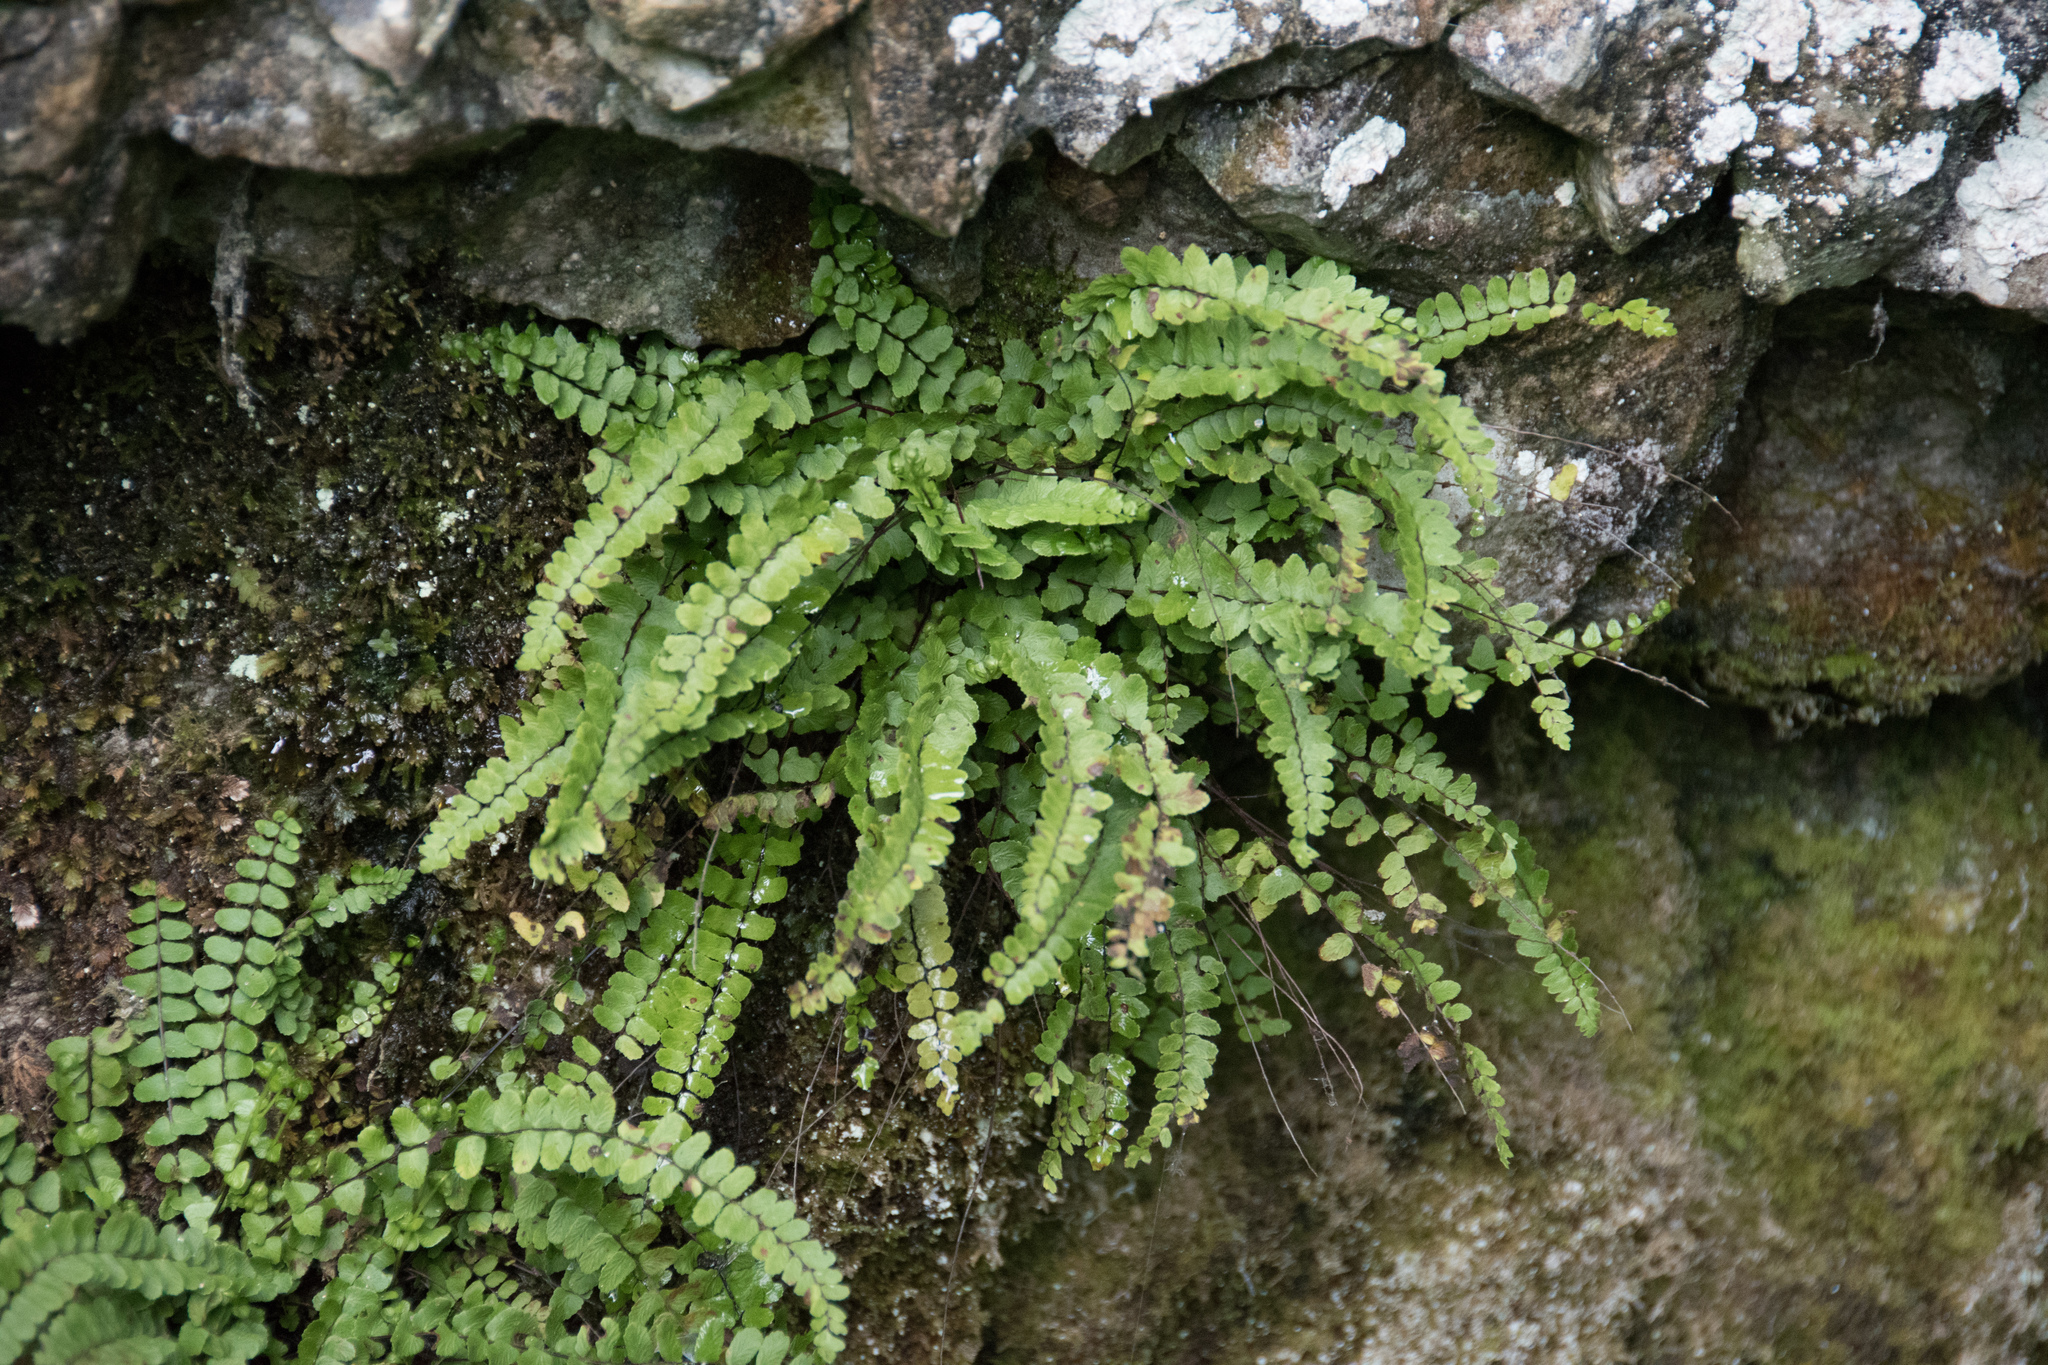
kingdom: Plantae
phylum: Tracheophyta
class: Polypodiopsida
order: Polypodiales
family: Aspleniaceae
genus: Asplenium
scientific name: Asplenium trichomanes
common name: Maidenhair spleenwort
